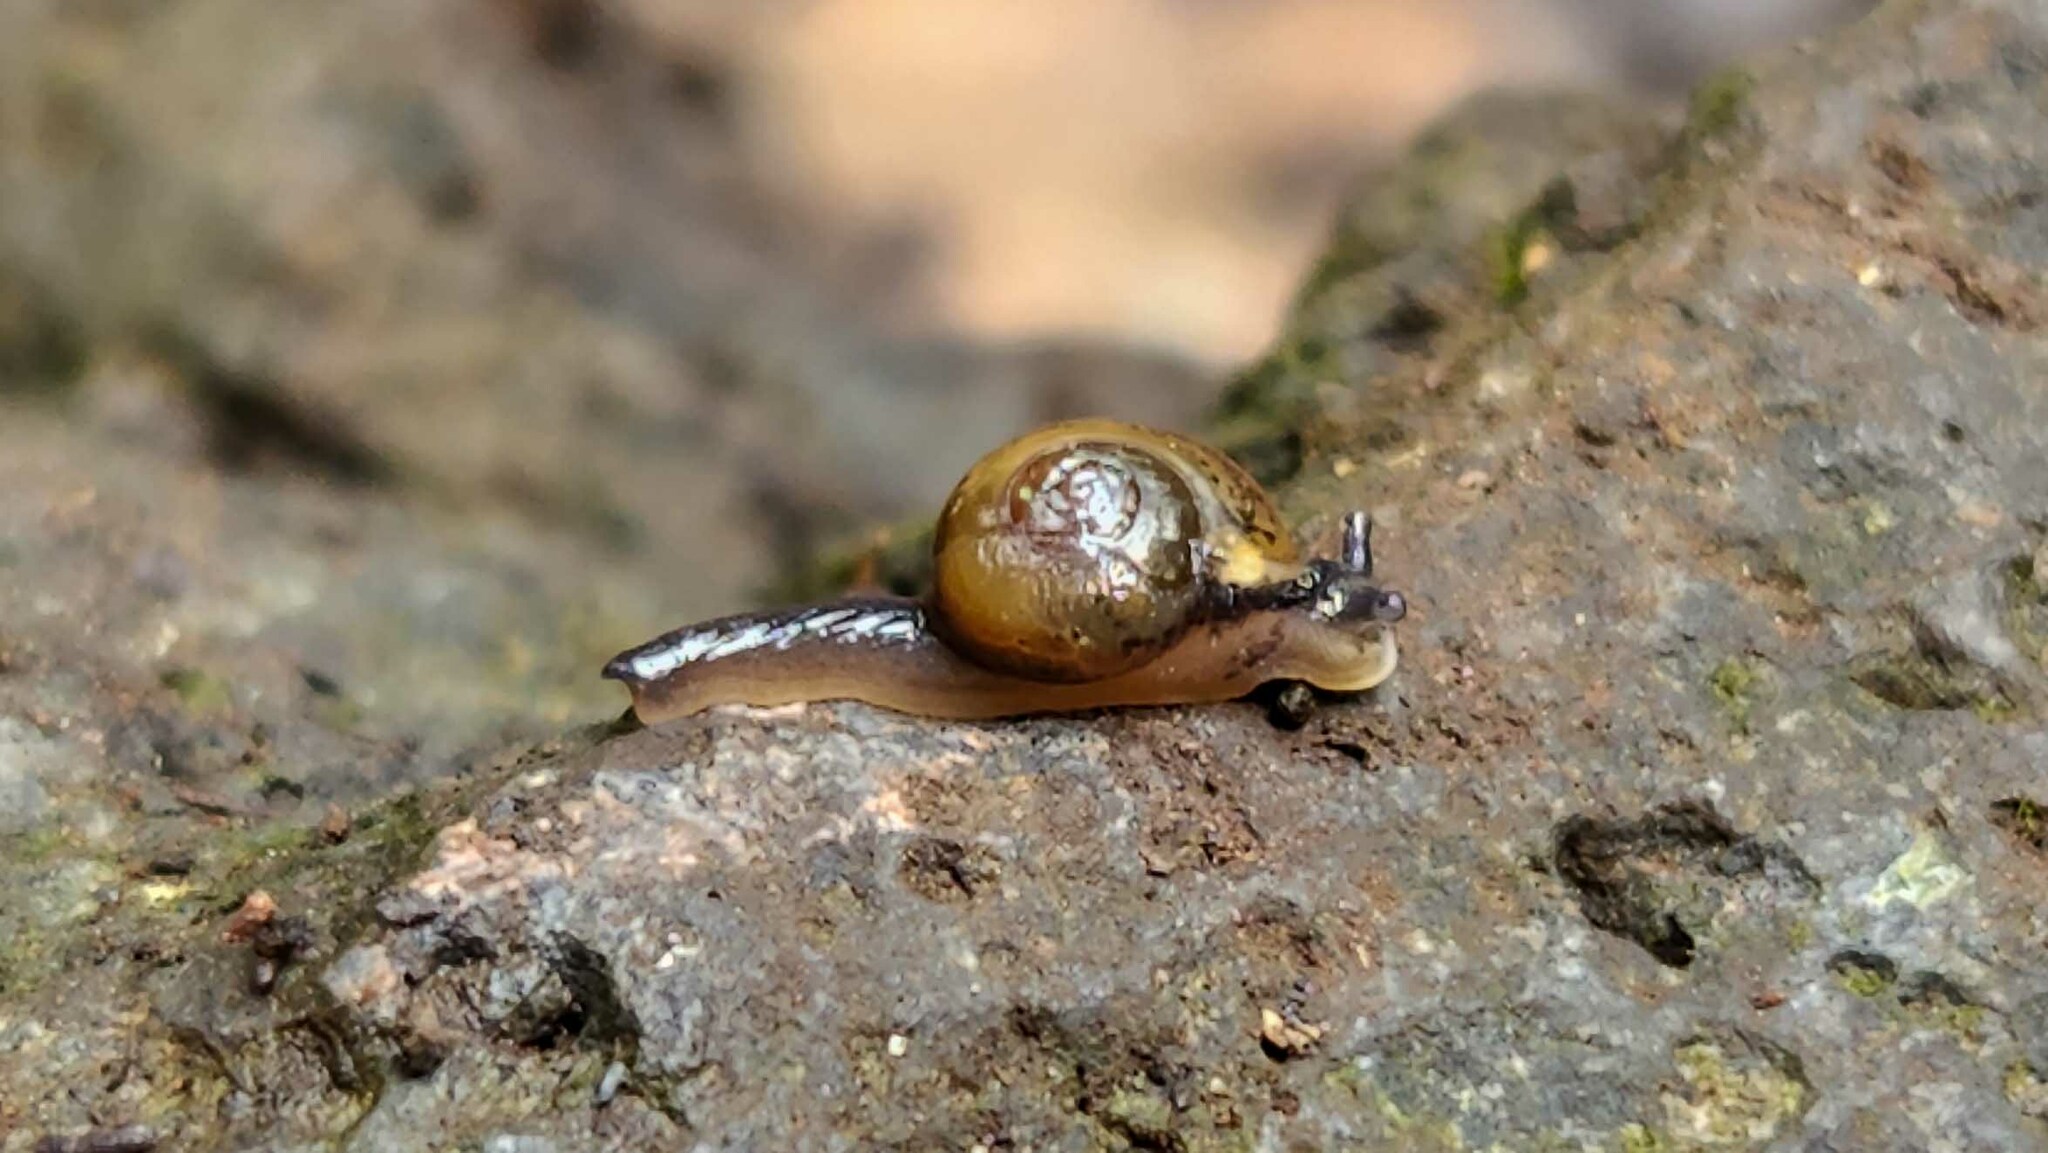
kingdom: Animalia
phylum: Mollusca
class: Gastropoda
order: Stylommatophora
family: Helicarionidae
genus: Ovachlamys
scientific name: Ovachlamys fulgens
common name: Jumping snail
